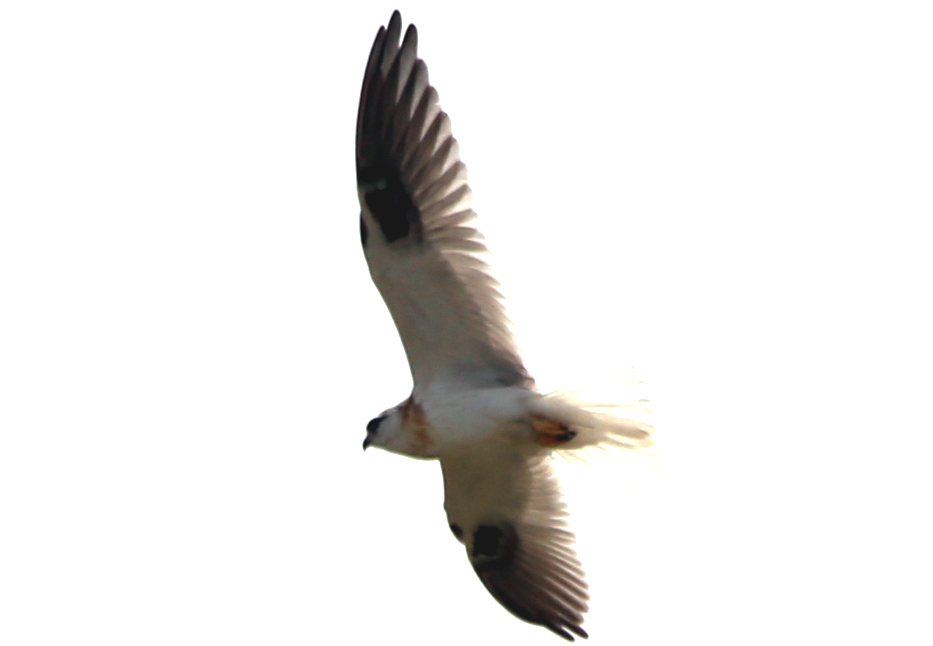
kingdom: Animalia
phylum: Chordata
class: Aves
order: Accipitriformes
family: Accipitridae
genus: Elanus
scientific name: Elanus axillaris
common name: Black-shouldered kite
